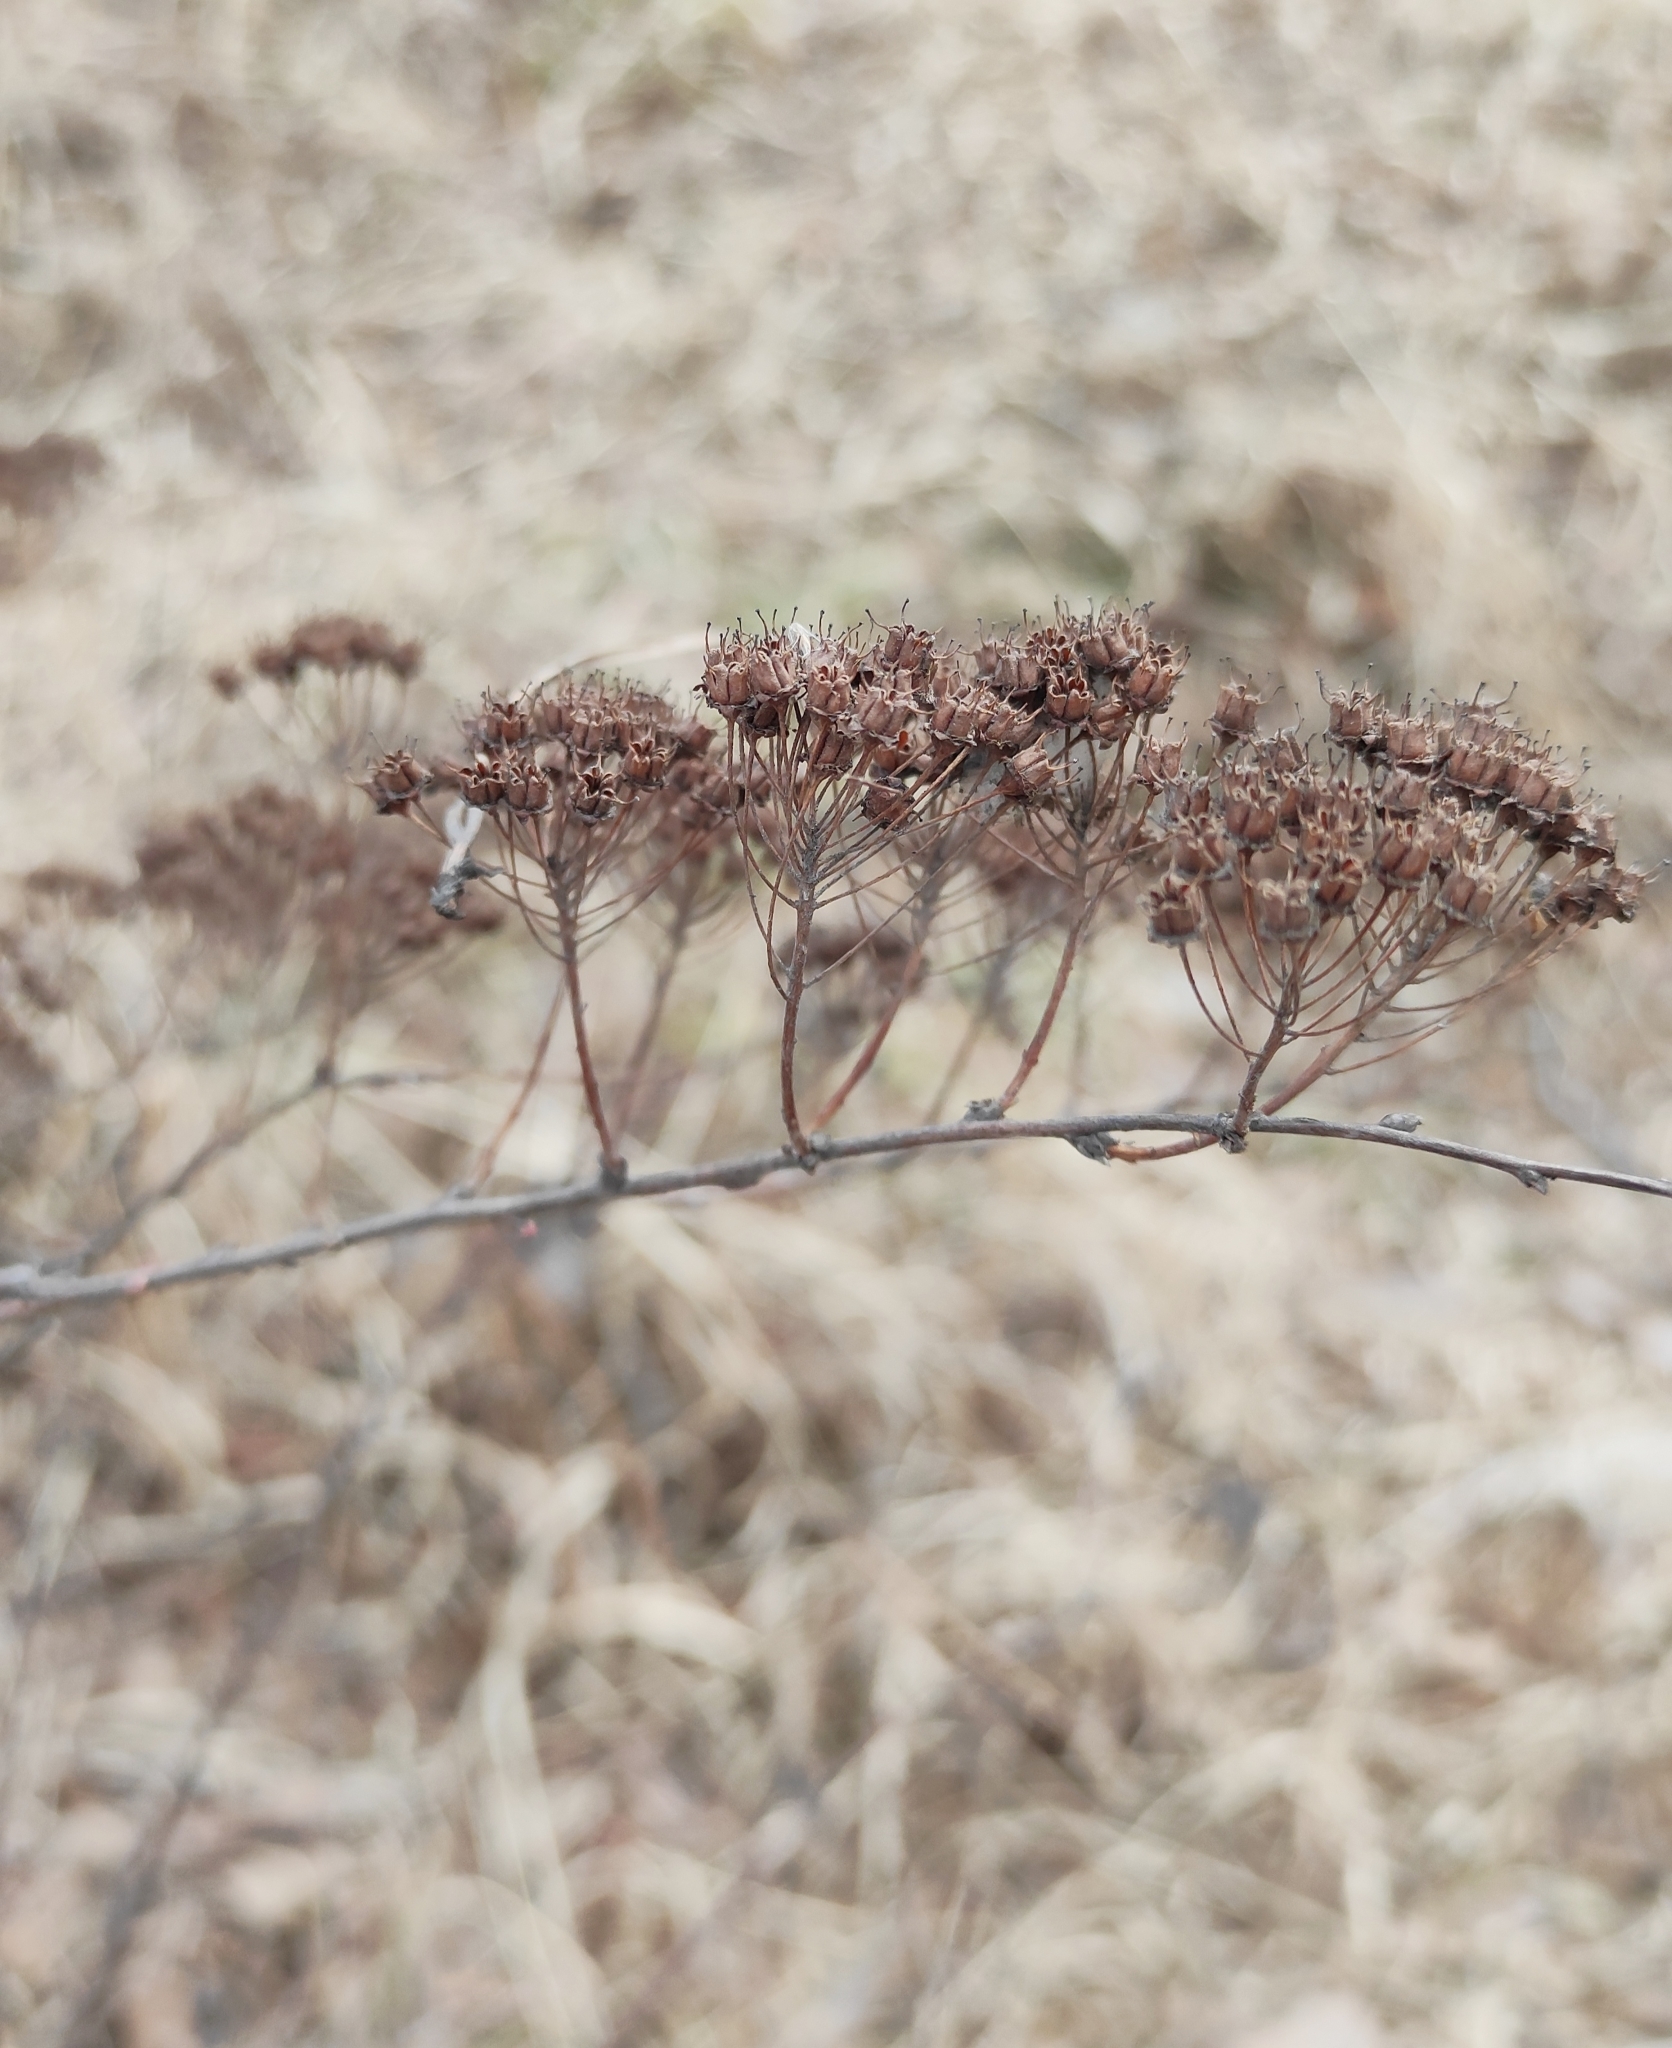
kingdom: Plantae
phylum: Tracheophyta
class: Magnoliopsida
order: Rosales
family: Rosaceae
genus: Spiraea
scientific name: Spiraea media
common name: Russian spiraea
